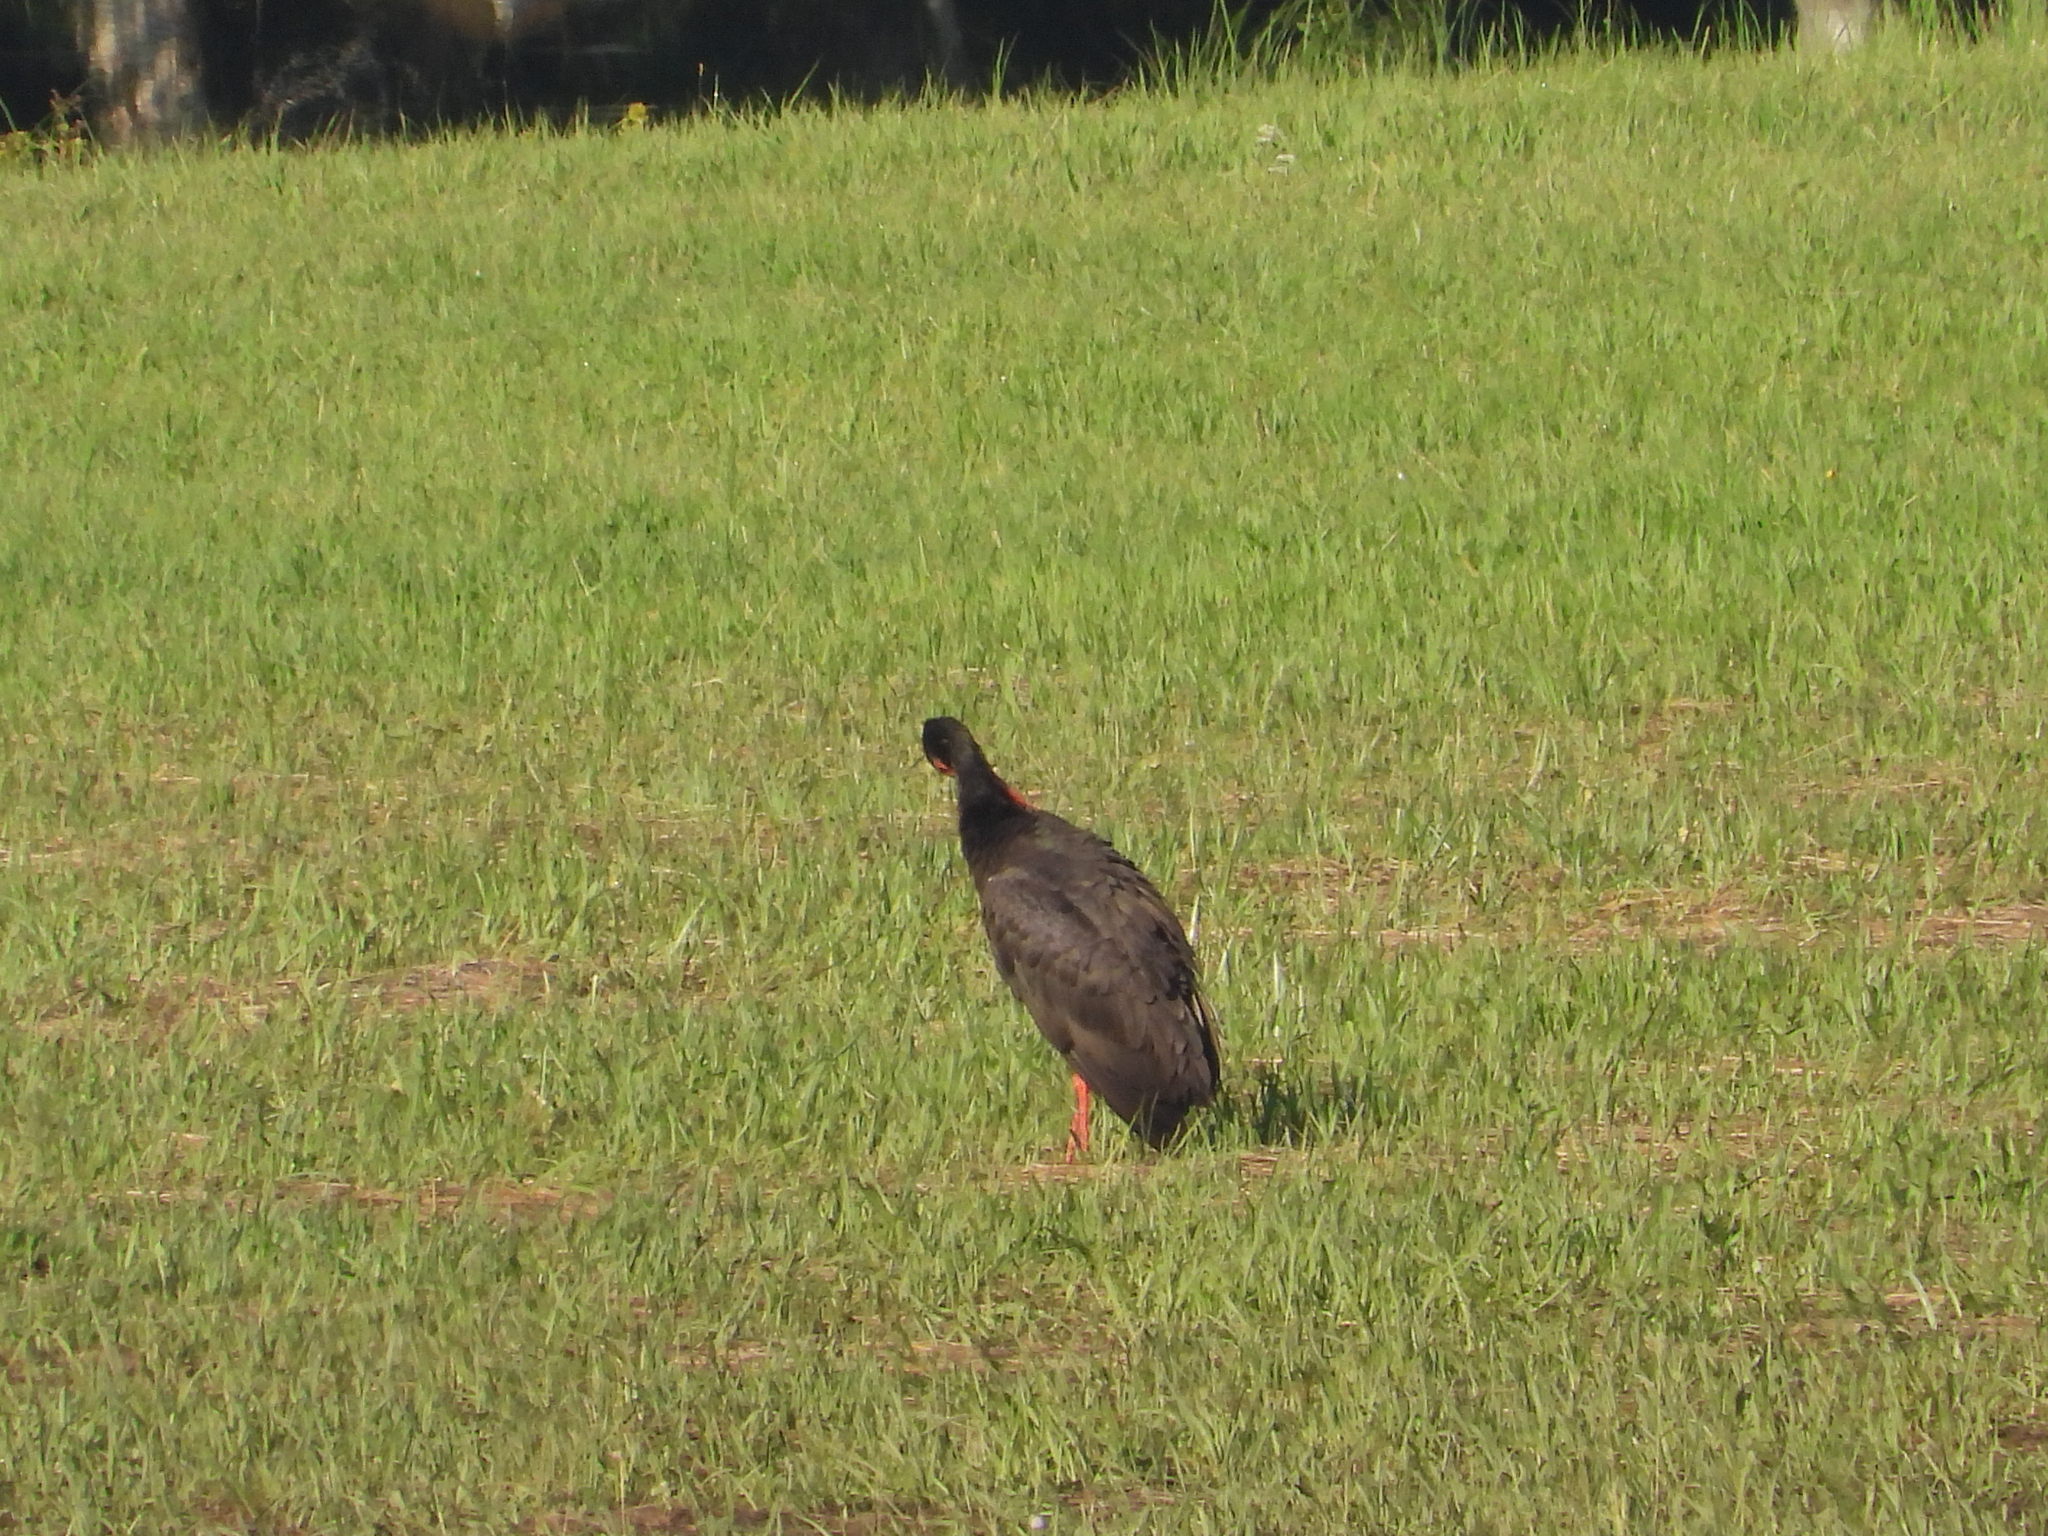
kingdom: Animalia
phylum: Chordata
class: Aves
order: Ciconiiformes
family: Ciconiidae
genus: Ciconia
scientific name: Ciconia nigra
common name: Black stork
